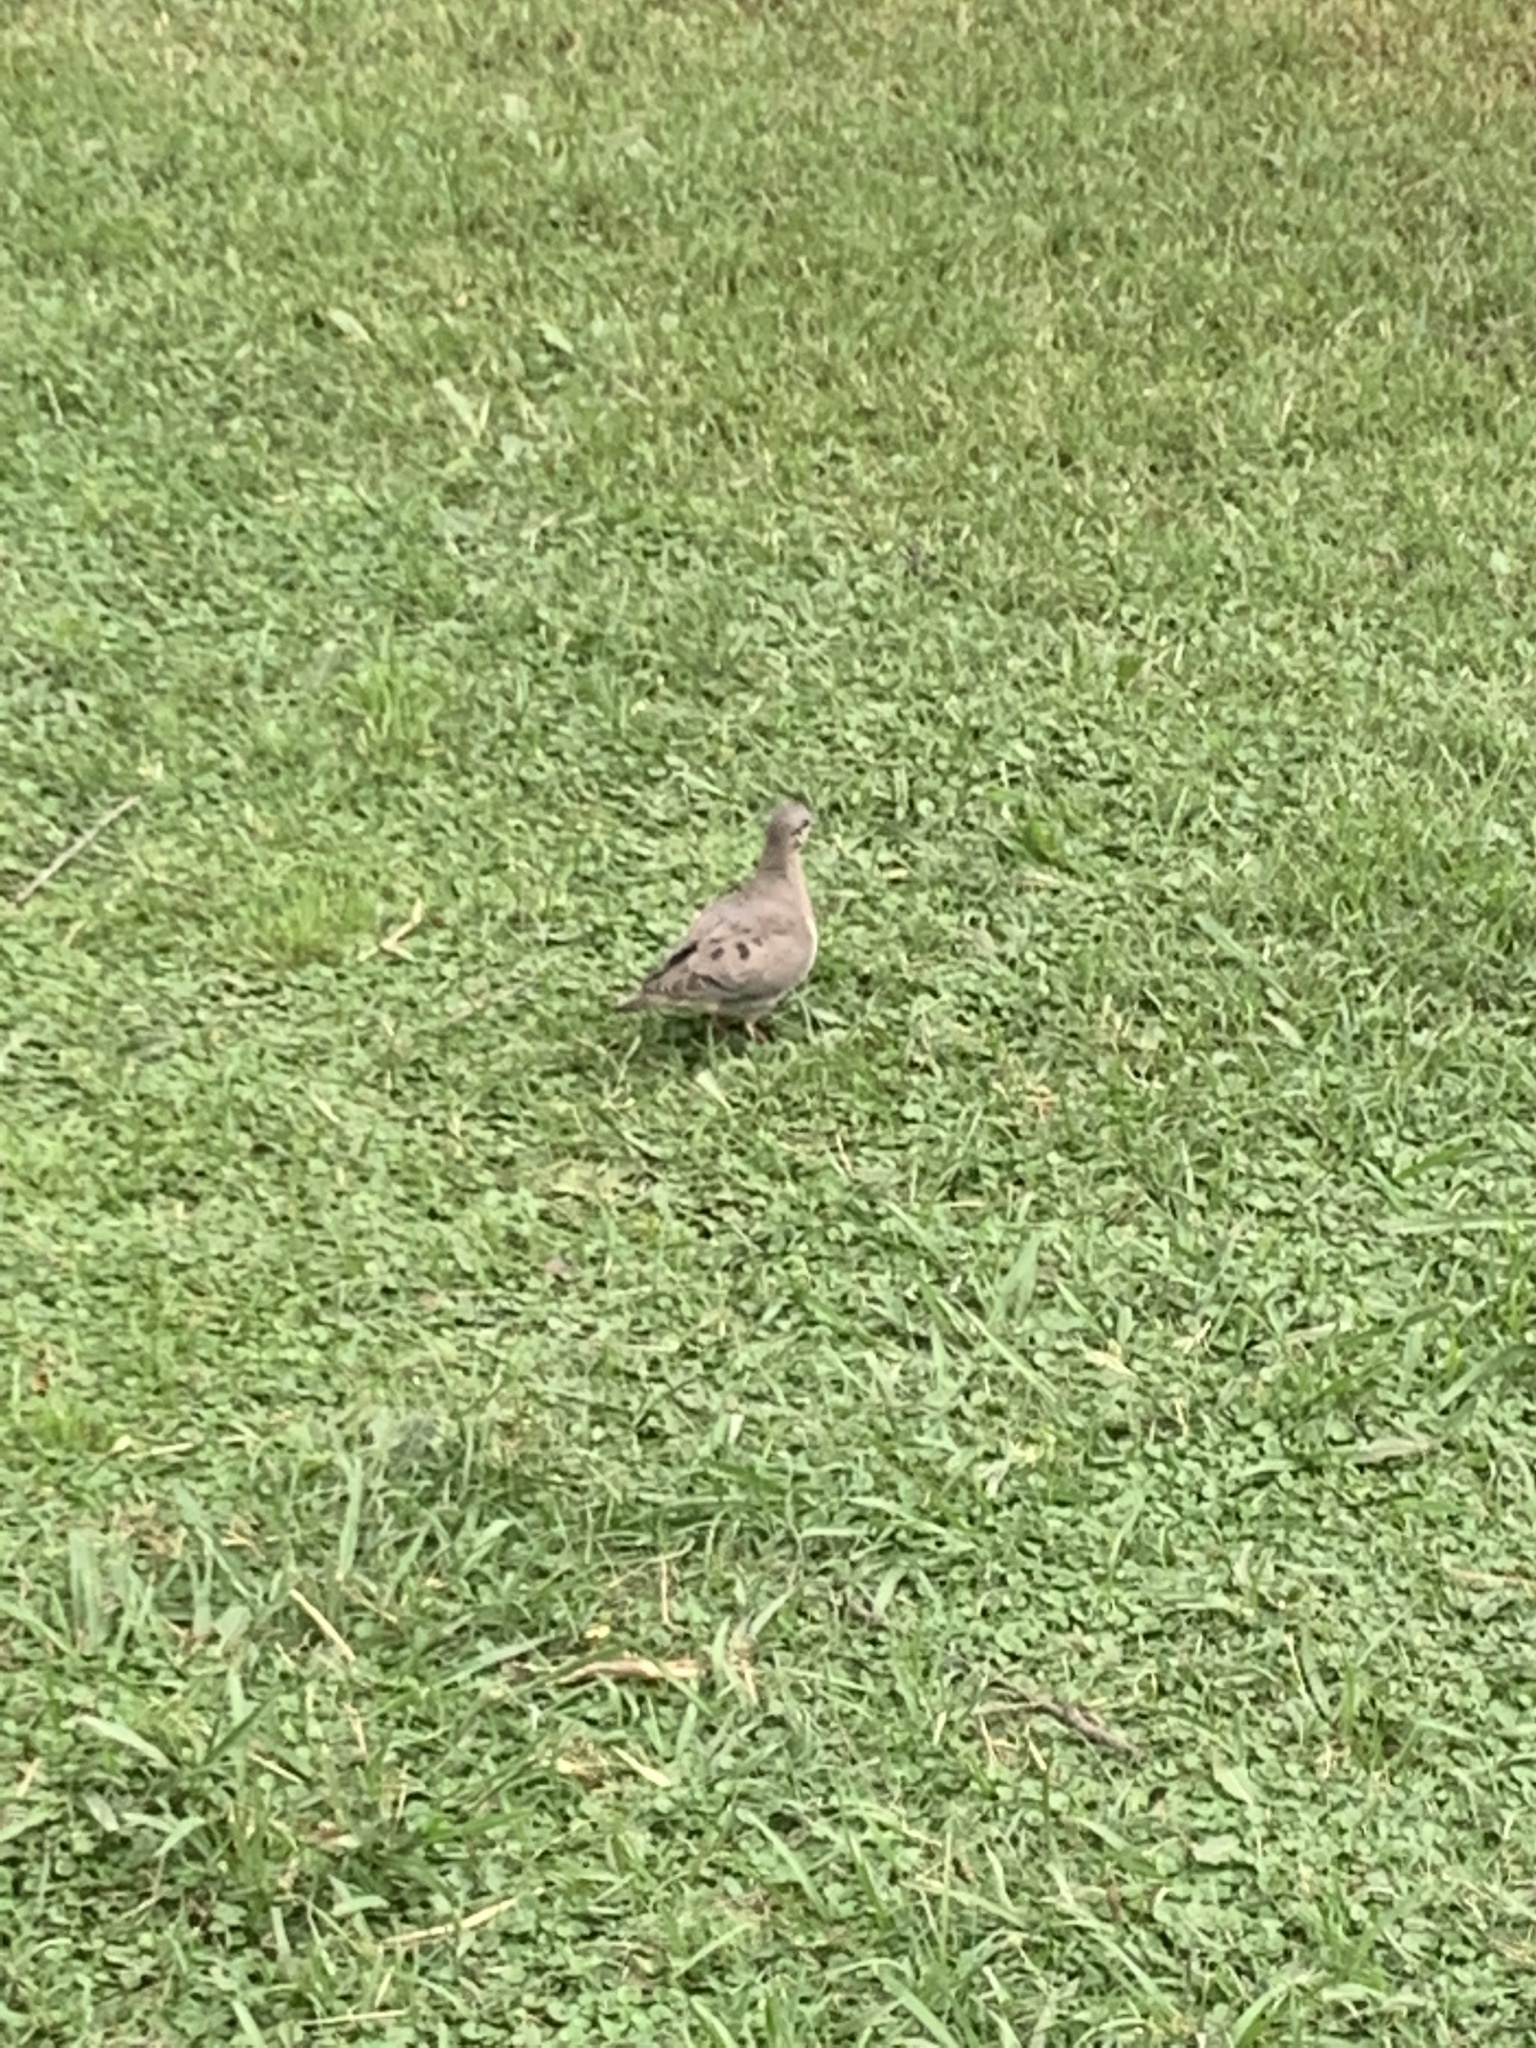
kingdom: Animalia
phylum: Chordata
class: Aves
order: Columbiformes
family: Columbidae
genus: Zenaida
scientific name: Zenaida auriculata
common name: Eared dove
